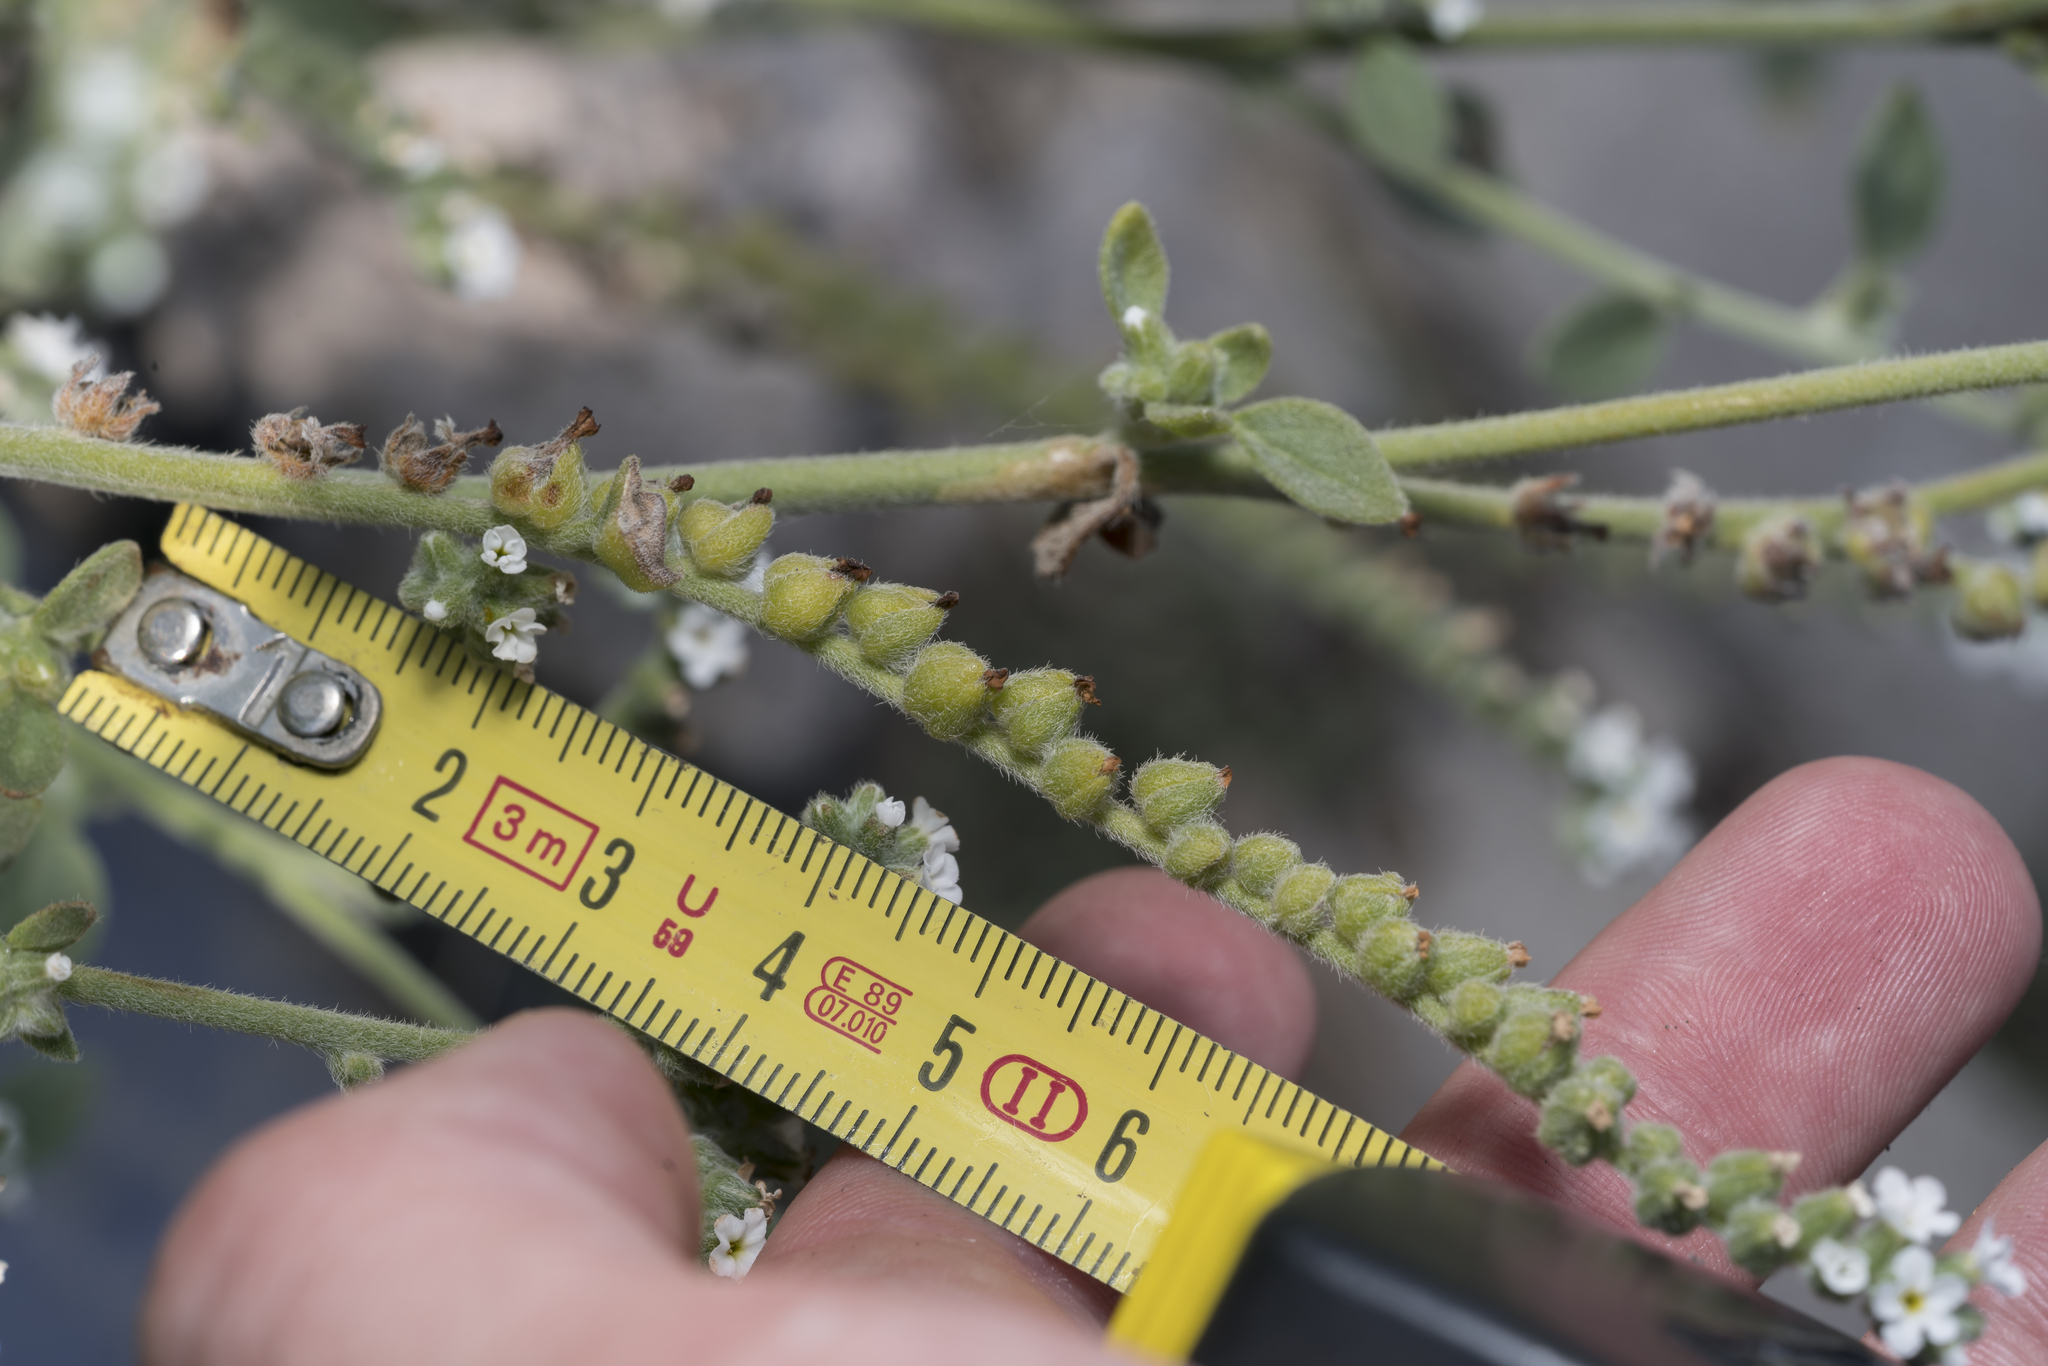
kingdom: Plantae
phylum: Tracheophyta
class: Magnoliopsida
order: Boraginales
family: Heliotropiaceae
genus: Heliotropium
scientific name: Heliotropium dolosum
